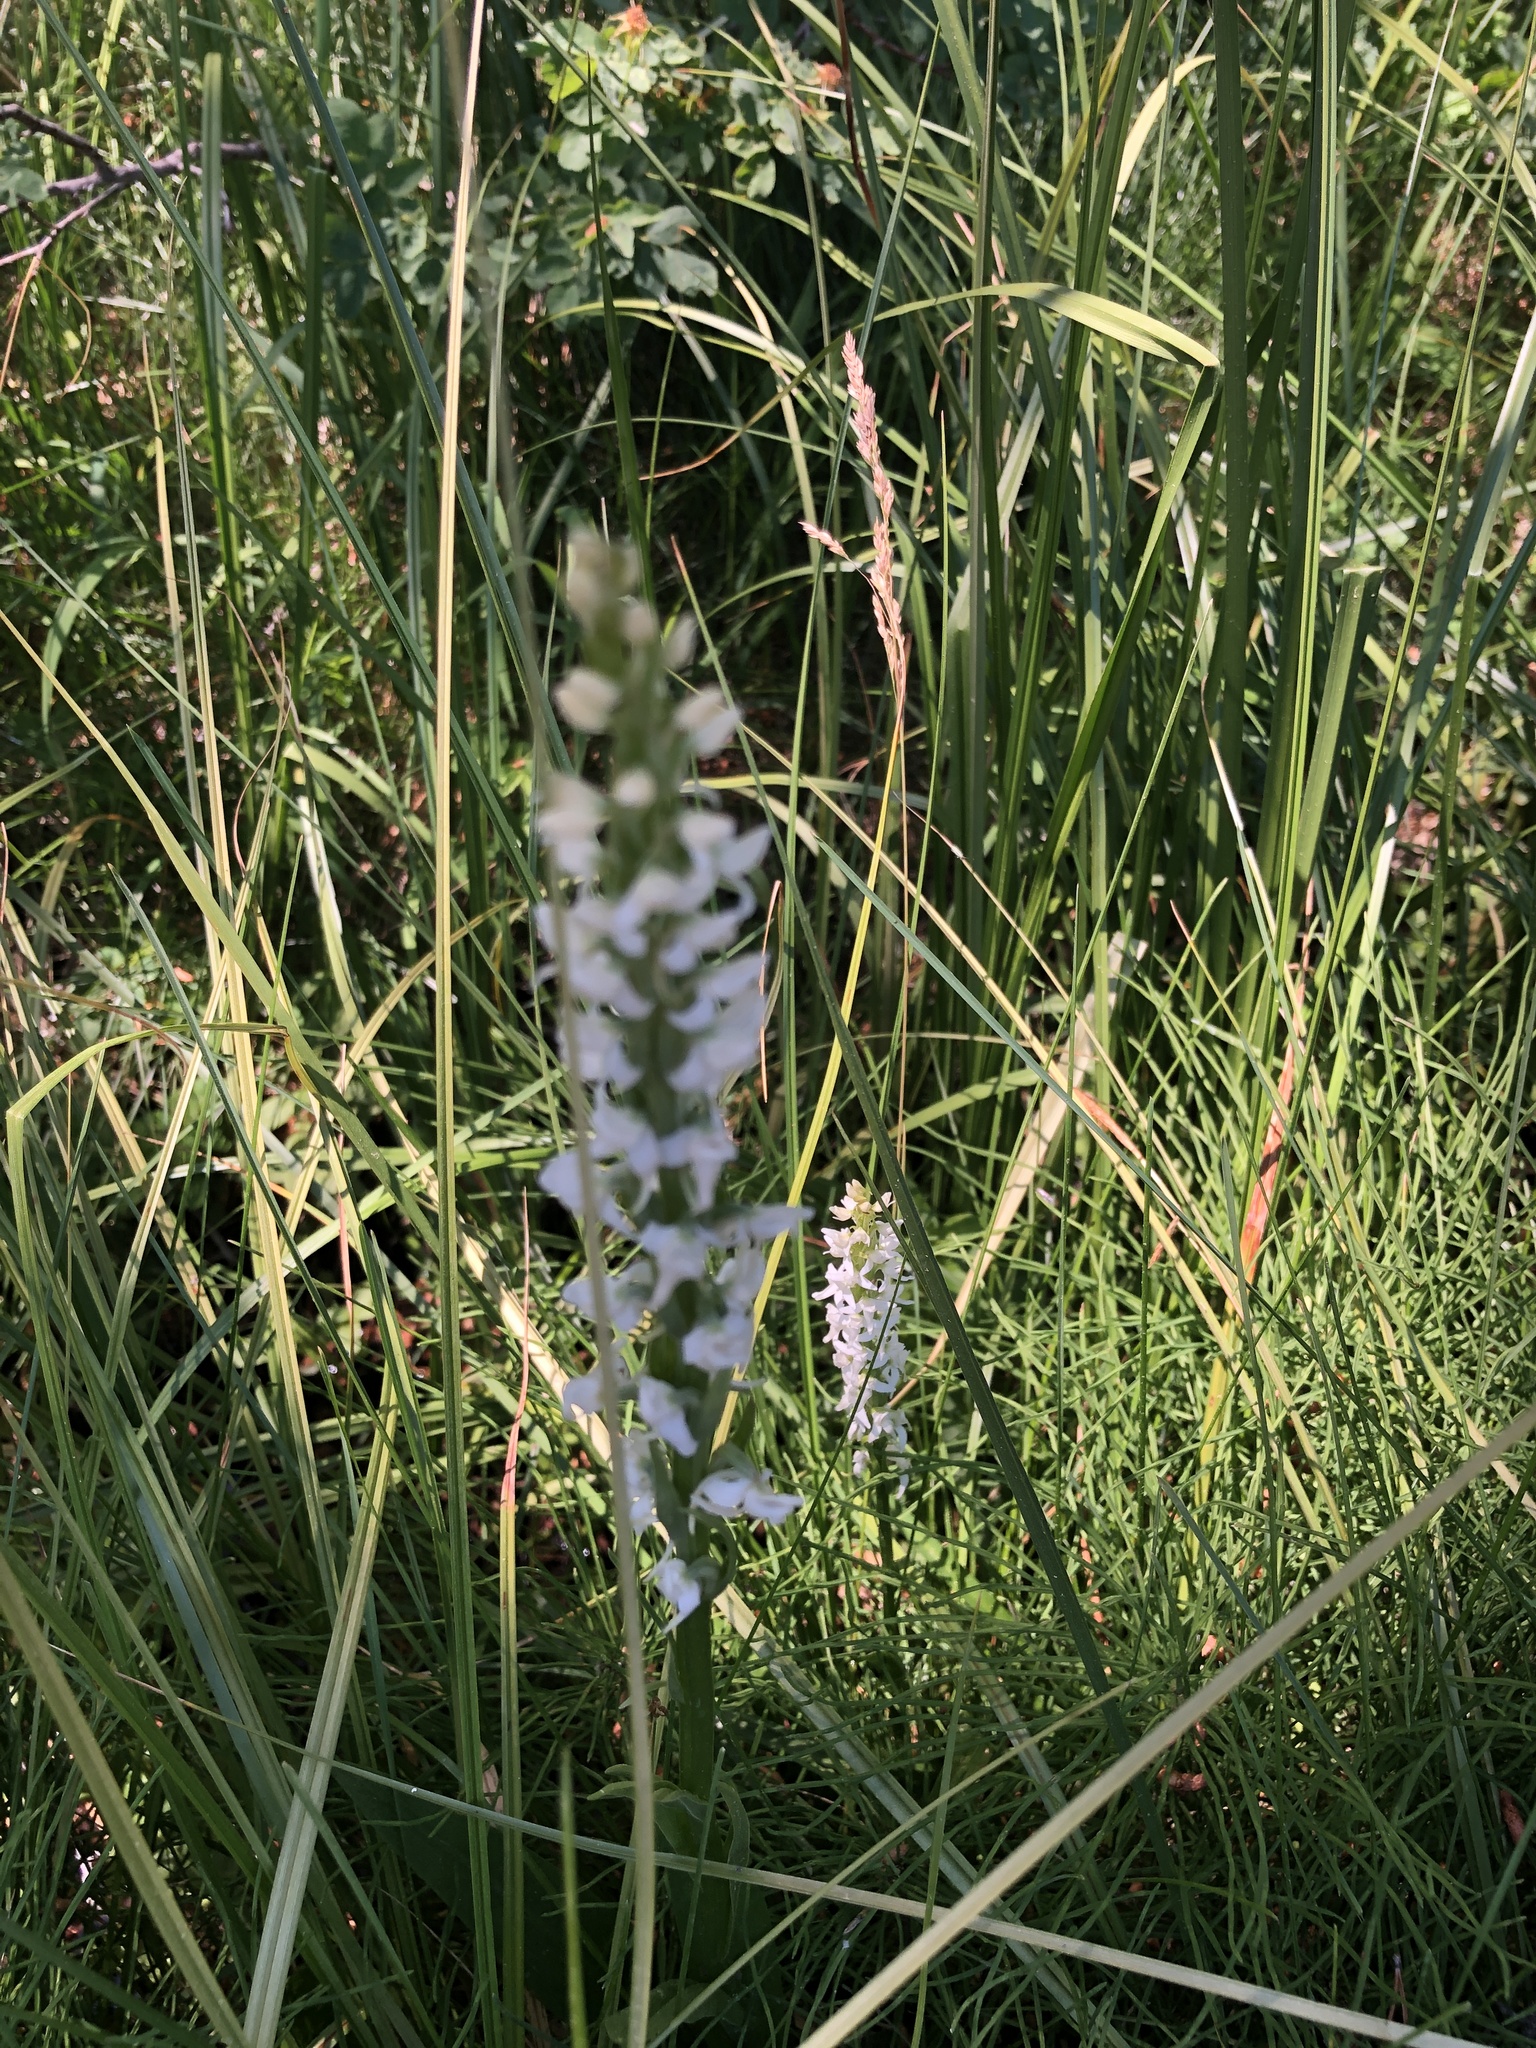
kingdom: Plantae
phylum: Tracheophyta
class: Liliopsida
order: Asparagales
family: Orchidaceae
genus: Platanthera
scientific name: Platanthera dilatata
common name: Bog candles
